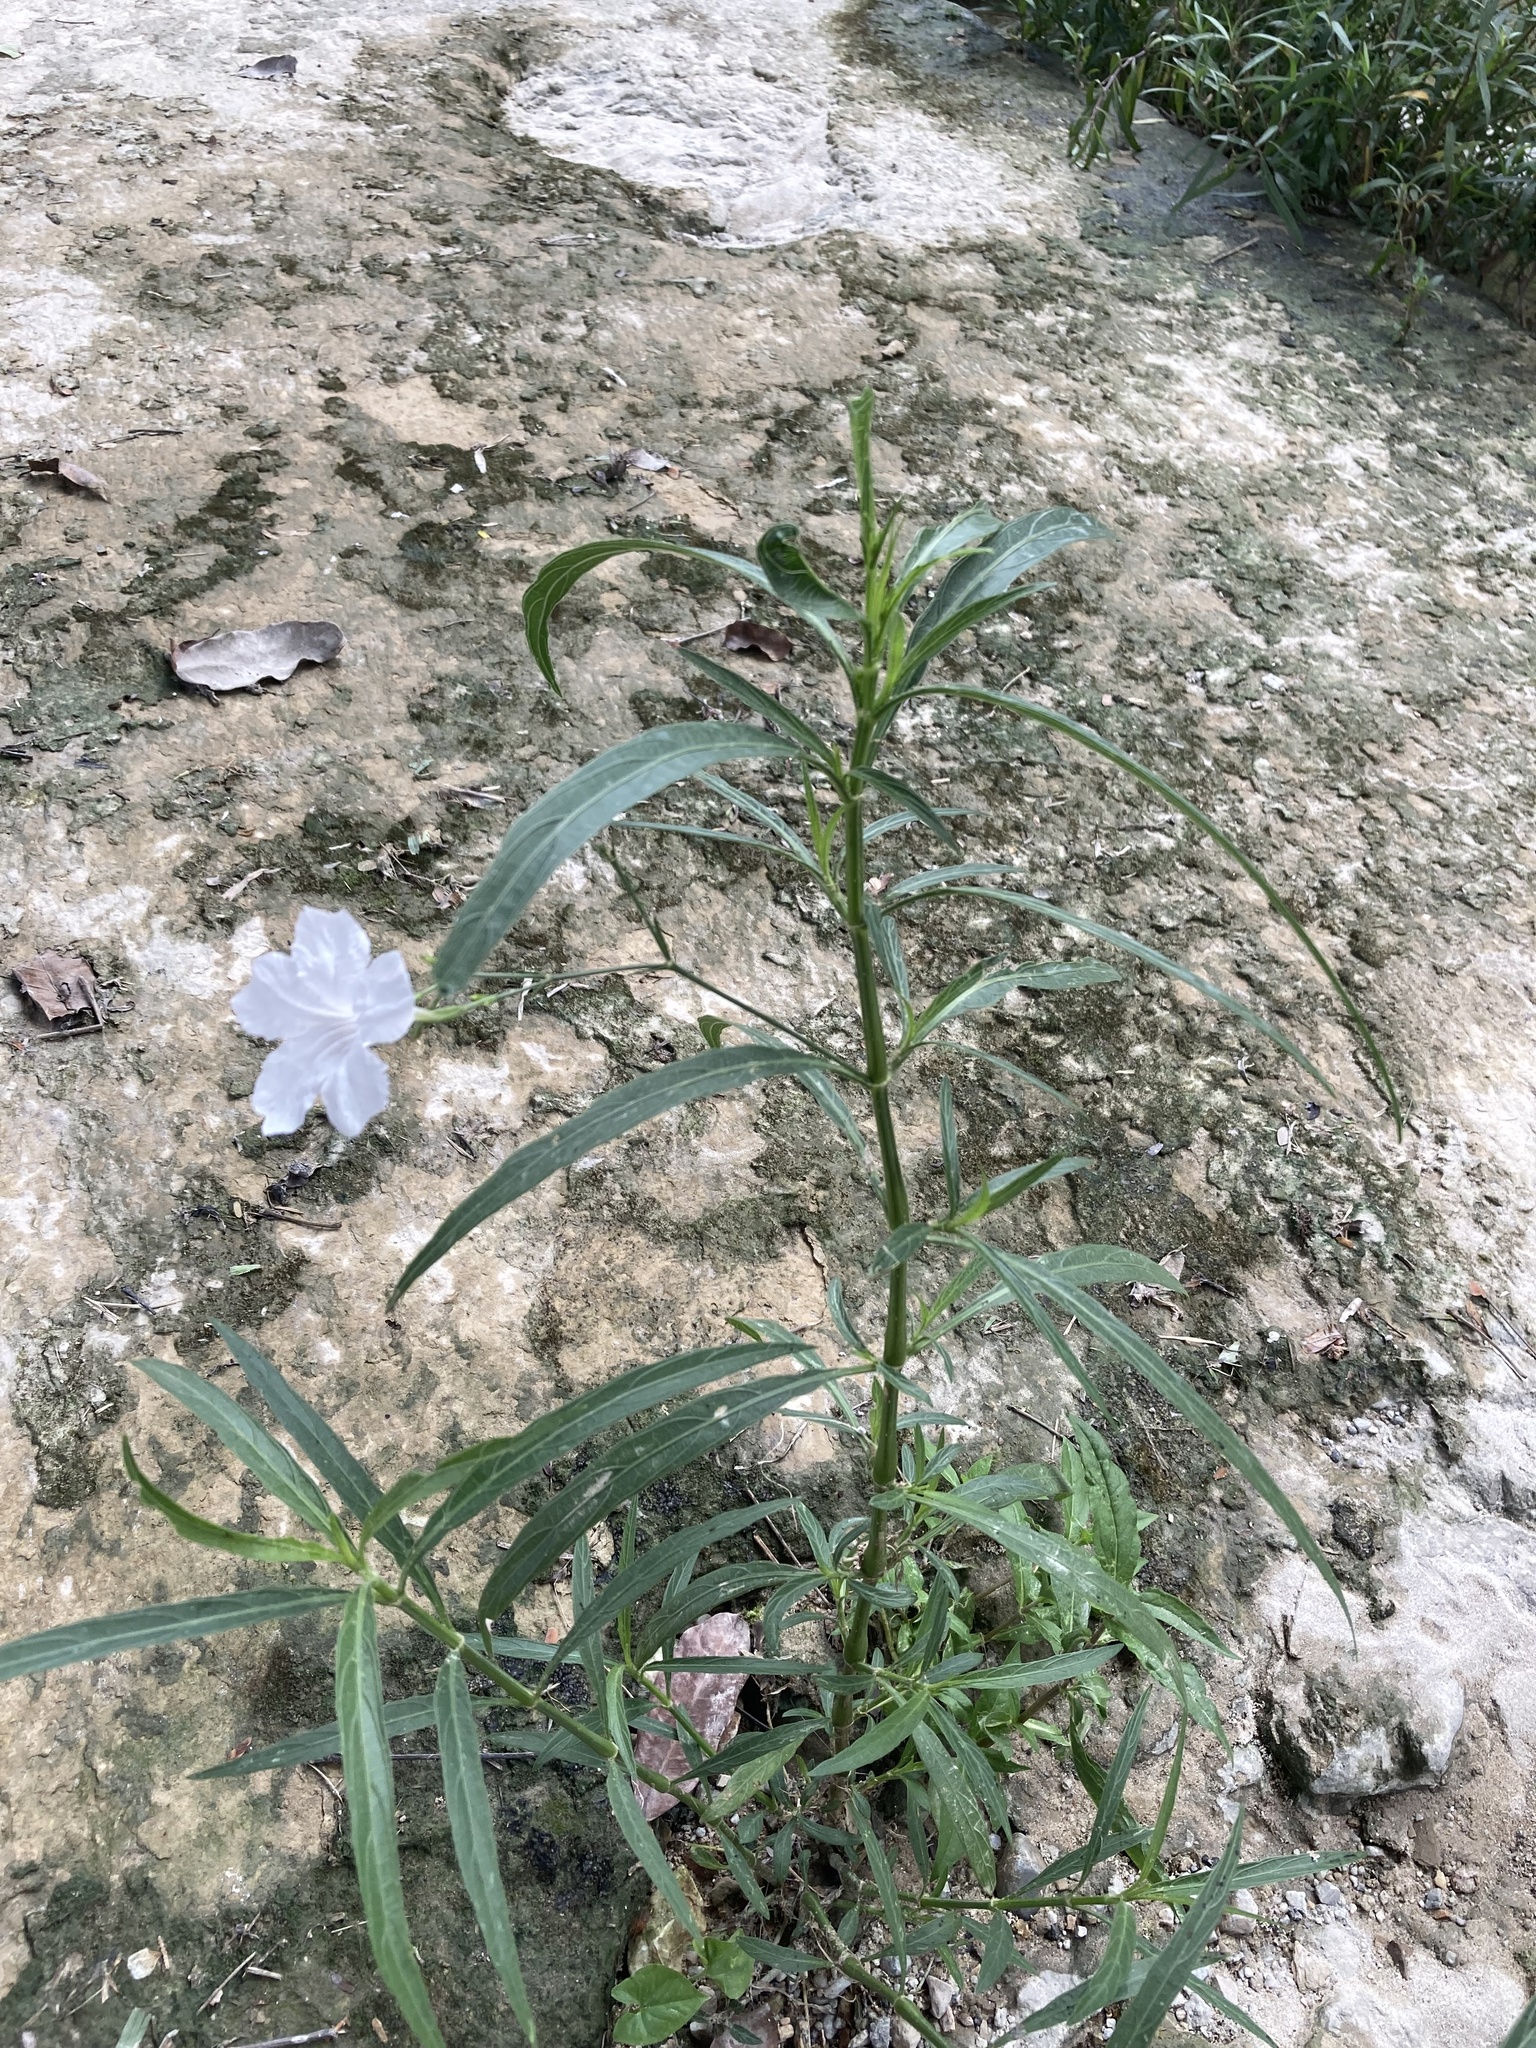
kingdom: Plantae
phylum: Tracheophyta
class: Magnoliopsida
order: Lamiales
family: Acanthaceae
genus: Ruellia
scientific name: Ruellia simplex
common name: Softseed wild petunia
